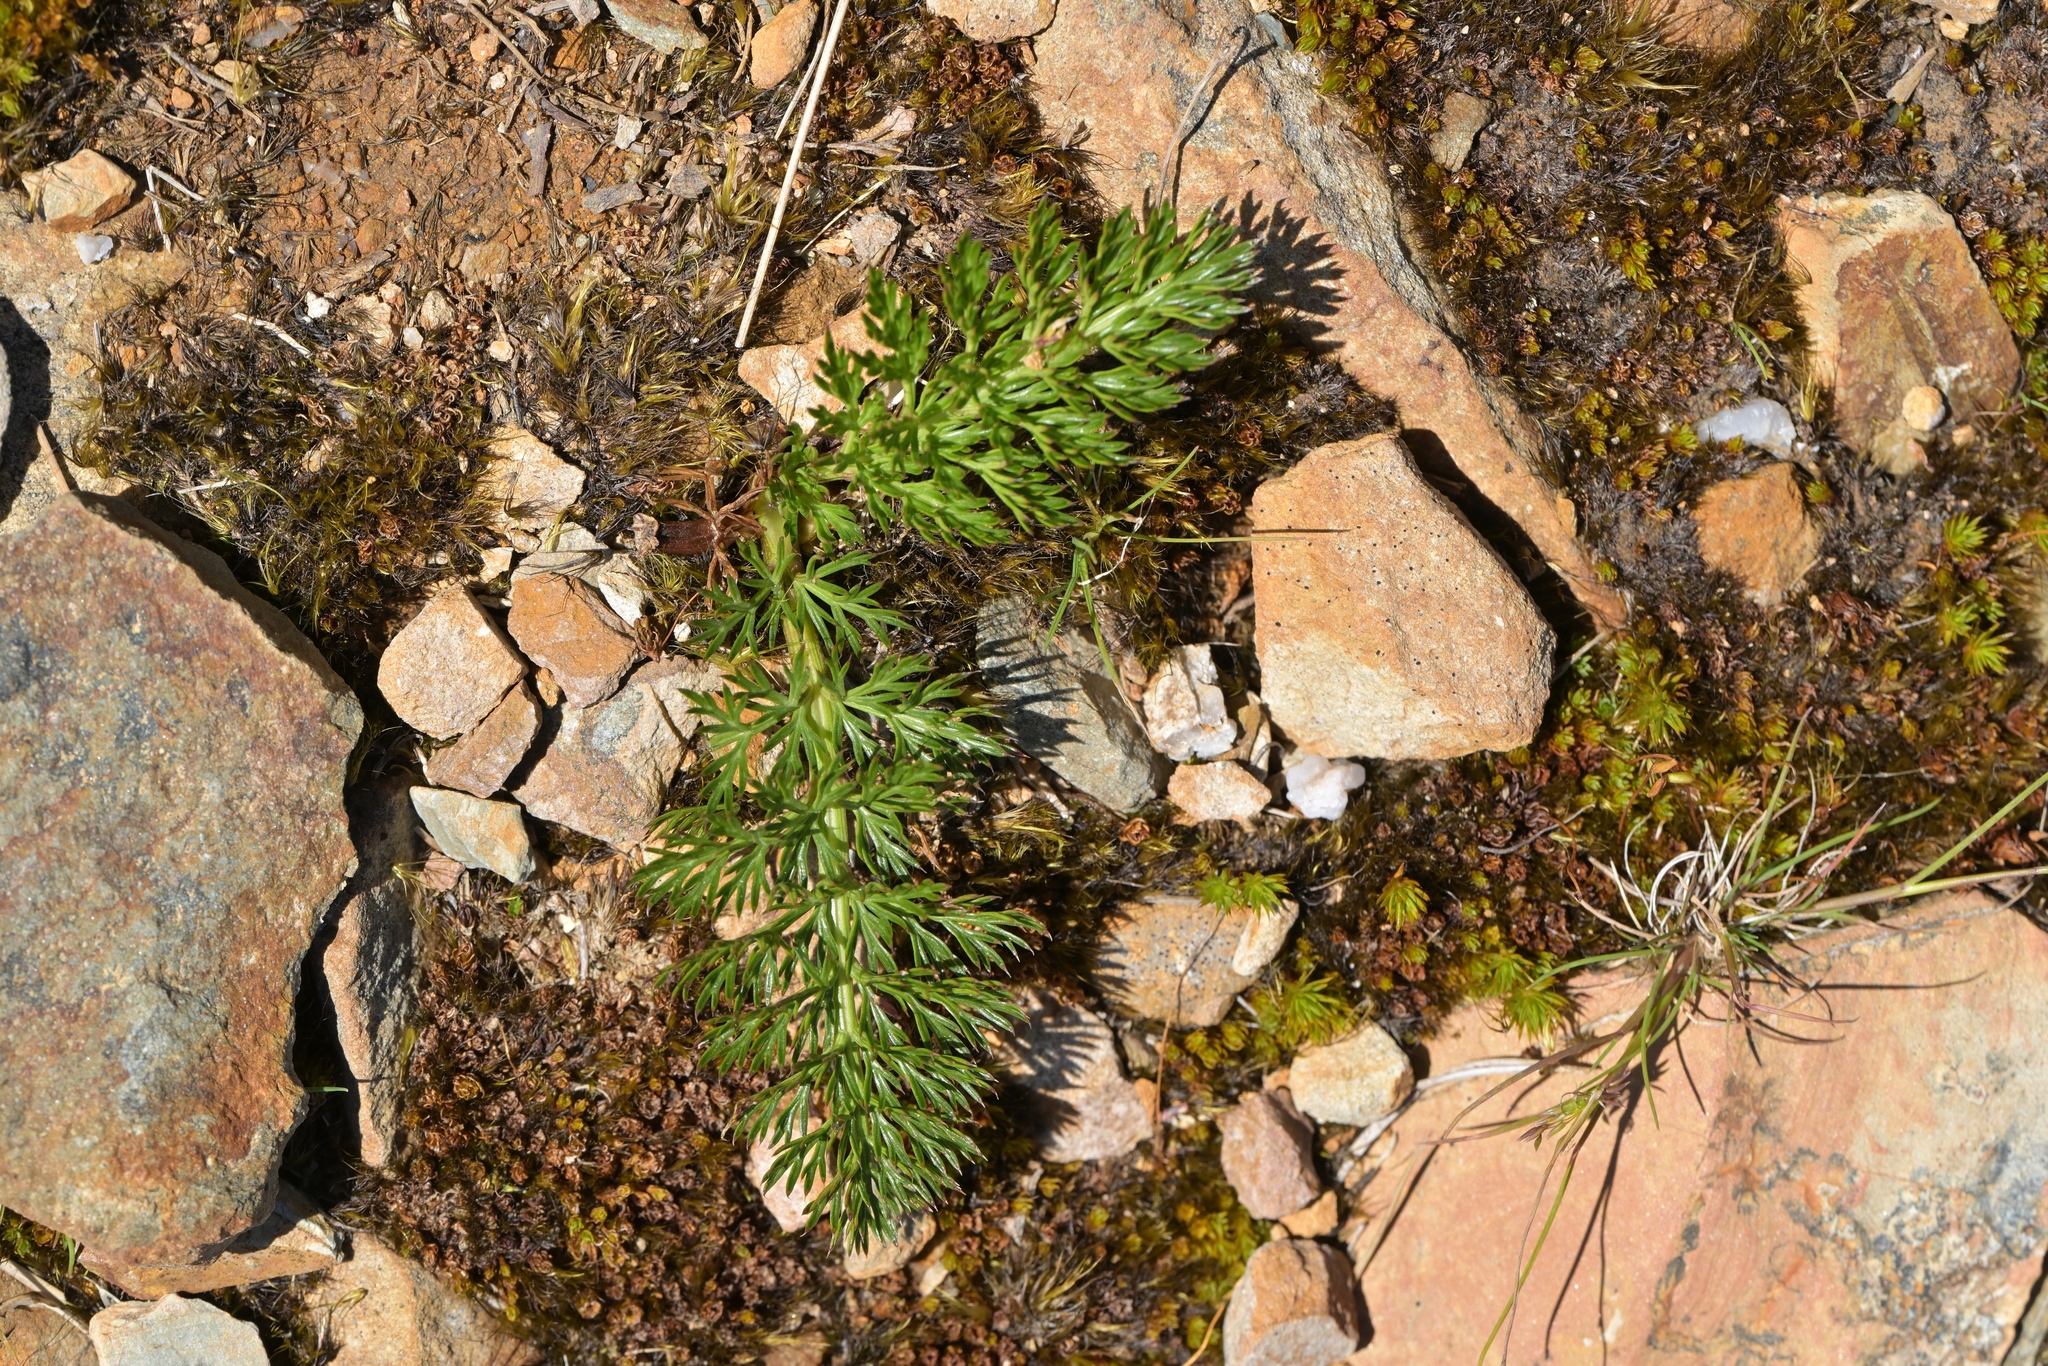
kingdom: Plantae
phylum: Tracheophyta
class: Magnoliopsida
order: Apiales
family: Apiaceae
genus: Anisotome
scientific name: Anisotome haastii
